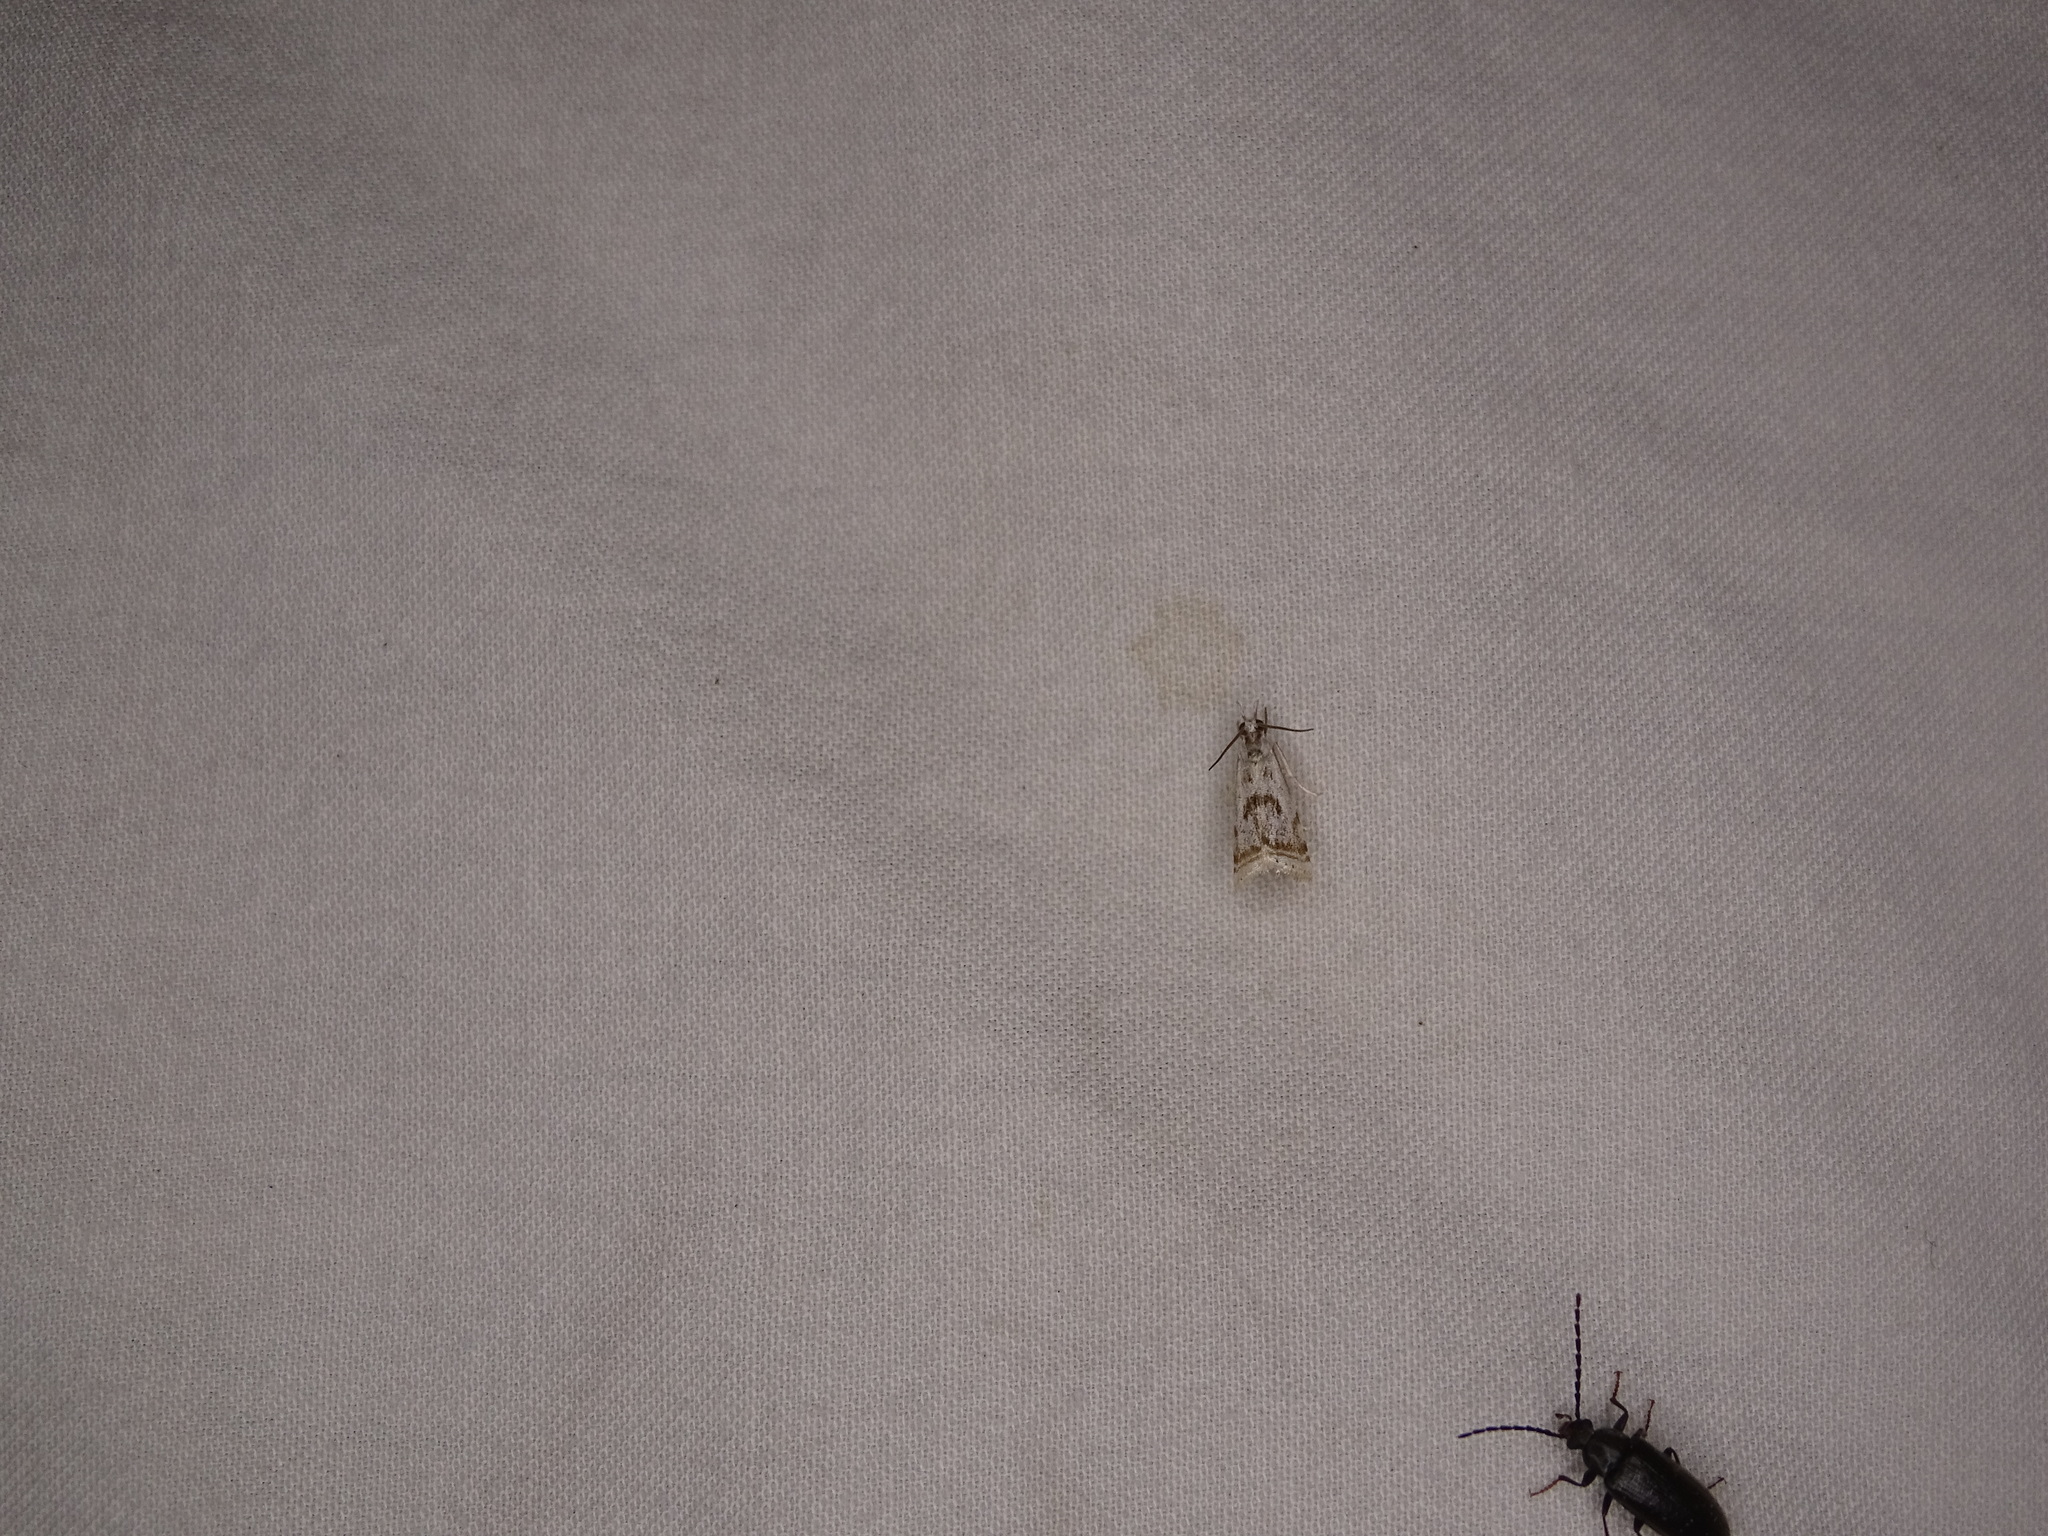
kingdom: Animalia
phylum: Arthropoda
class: Insecta
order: Lepidoptera
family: Crambidae
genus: Microcrambus
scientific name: Microcrambus elegans
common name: Elegant grass-veneer
